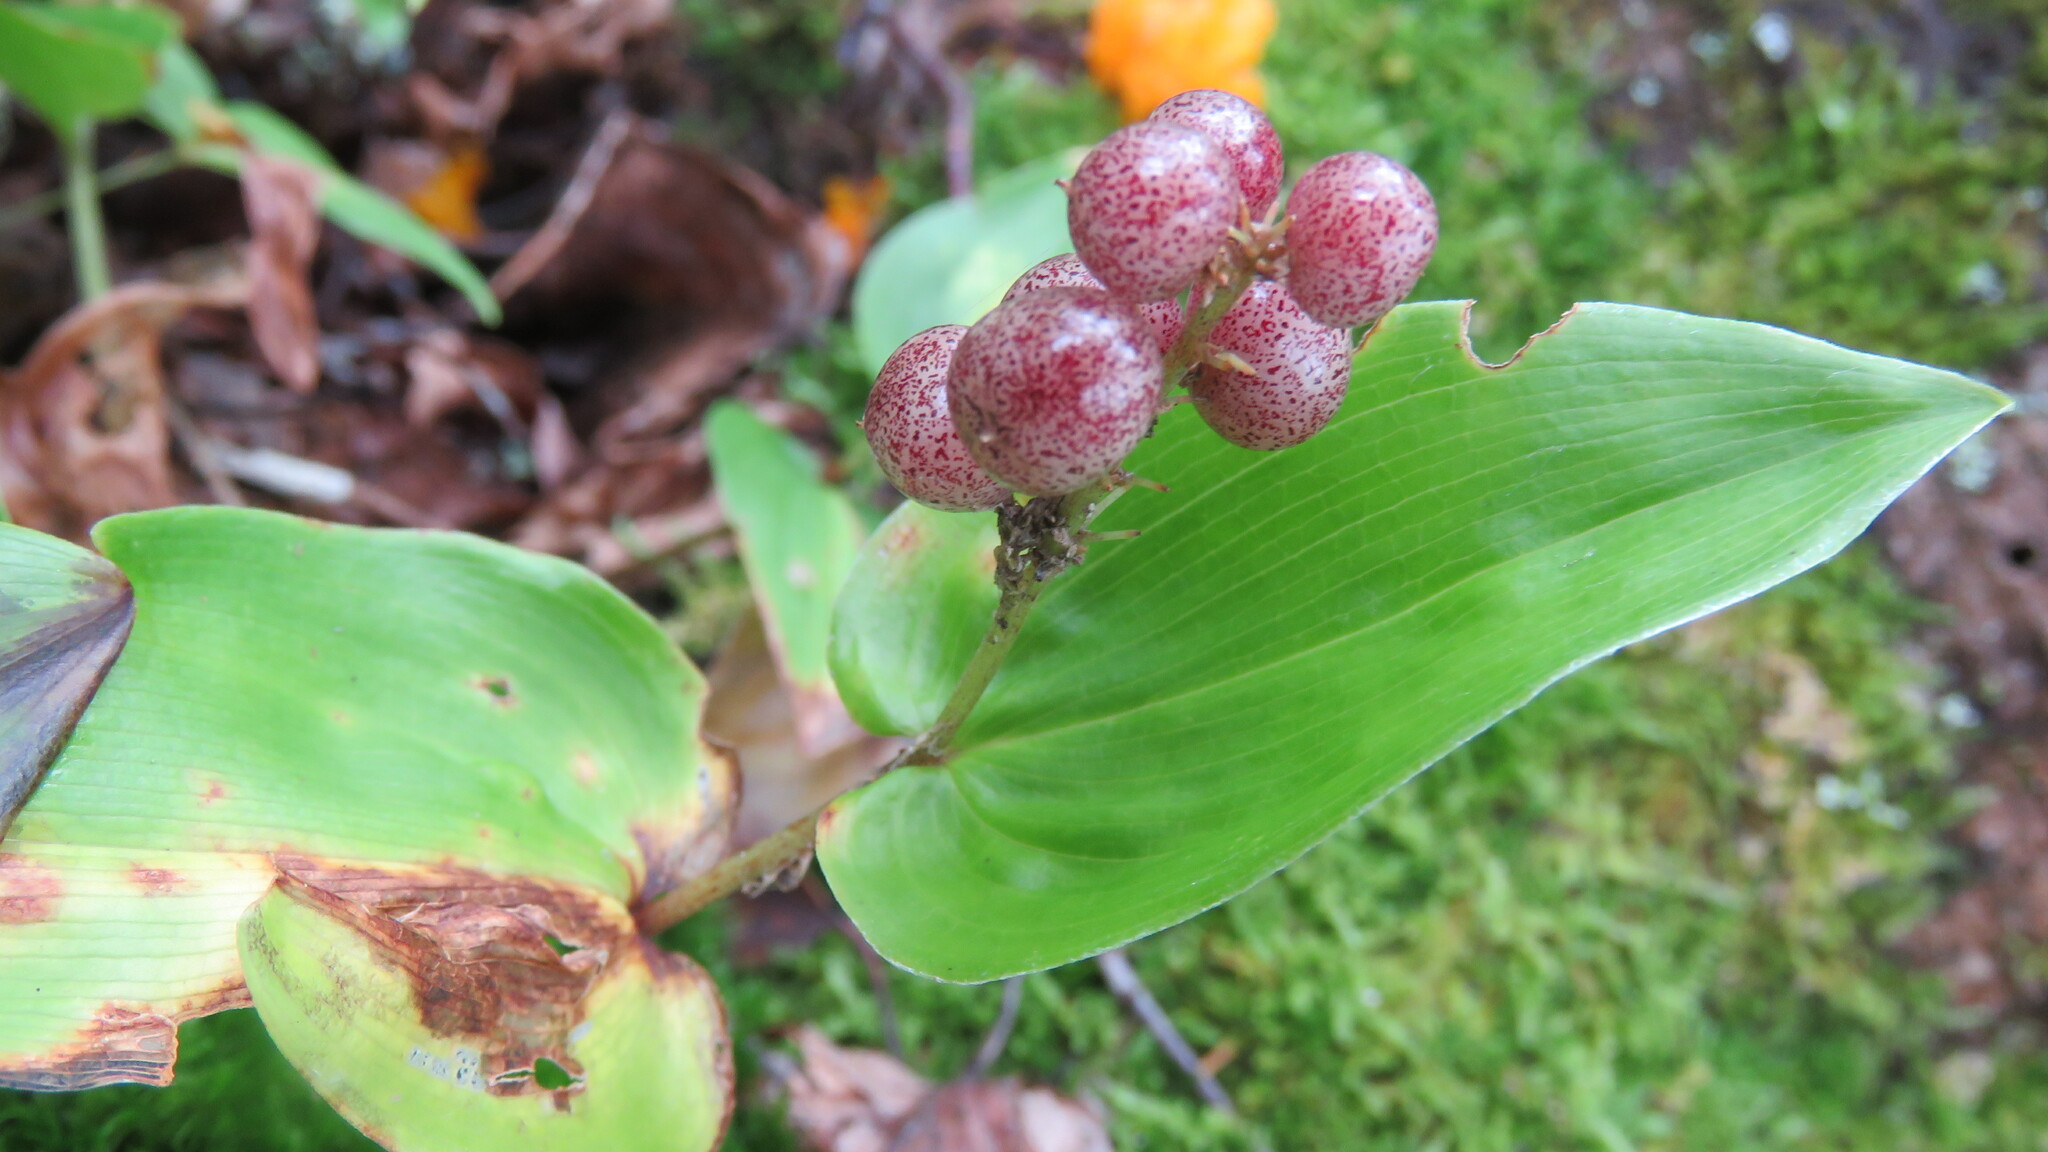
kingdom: Plantae
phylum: Tracheophyta
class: Liliopsida
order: Asparagales
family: Asparagaceae
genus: Maianthemum
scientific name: Maianthemum canadense
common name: False lily-of-the-valley
